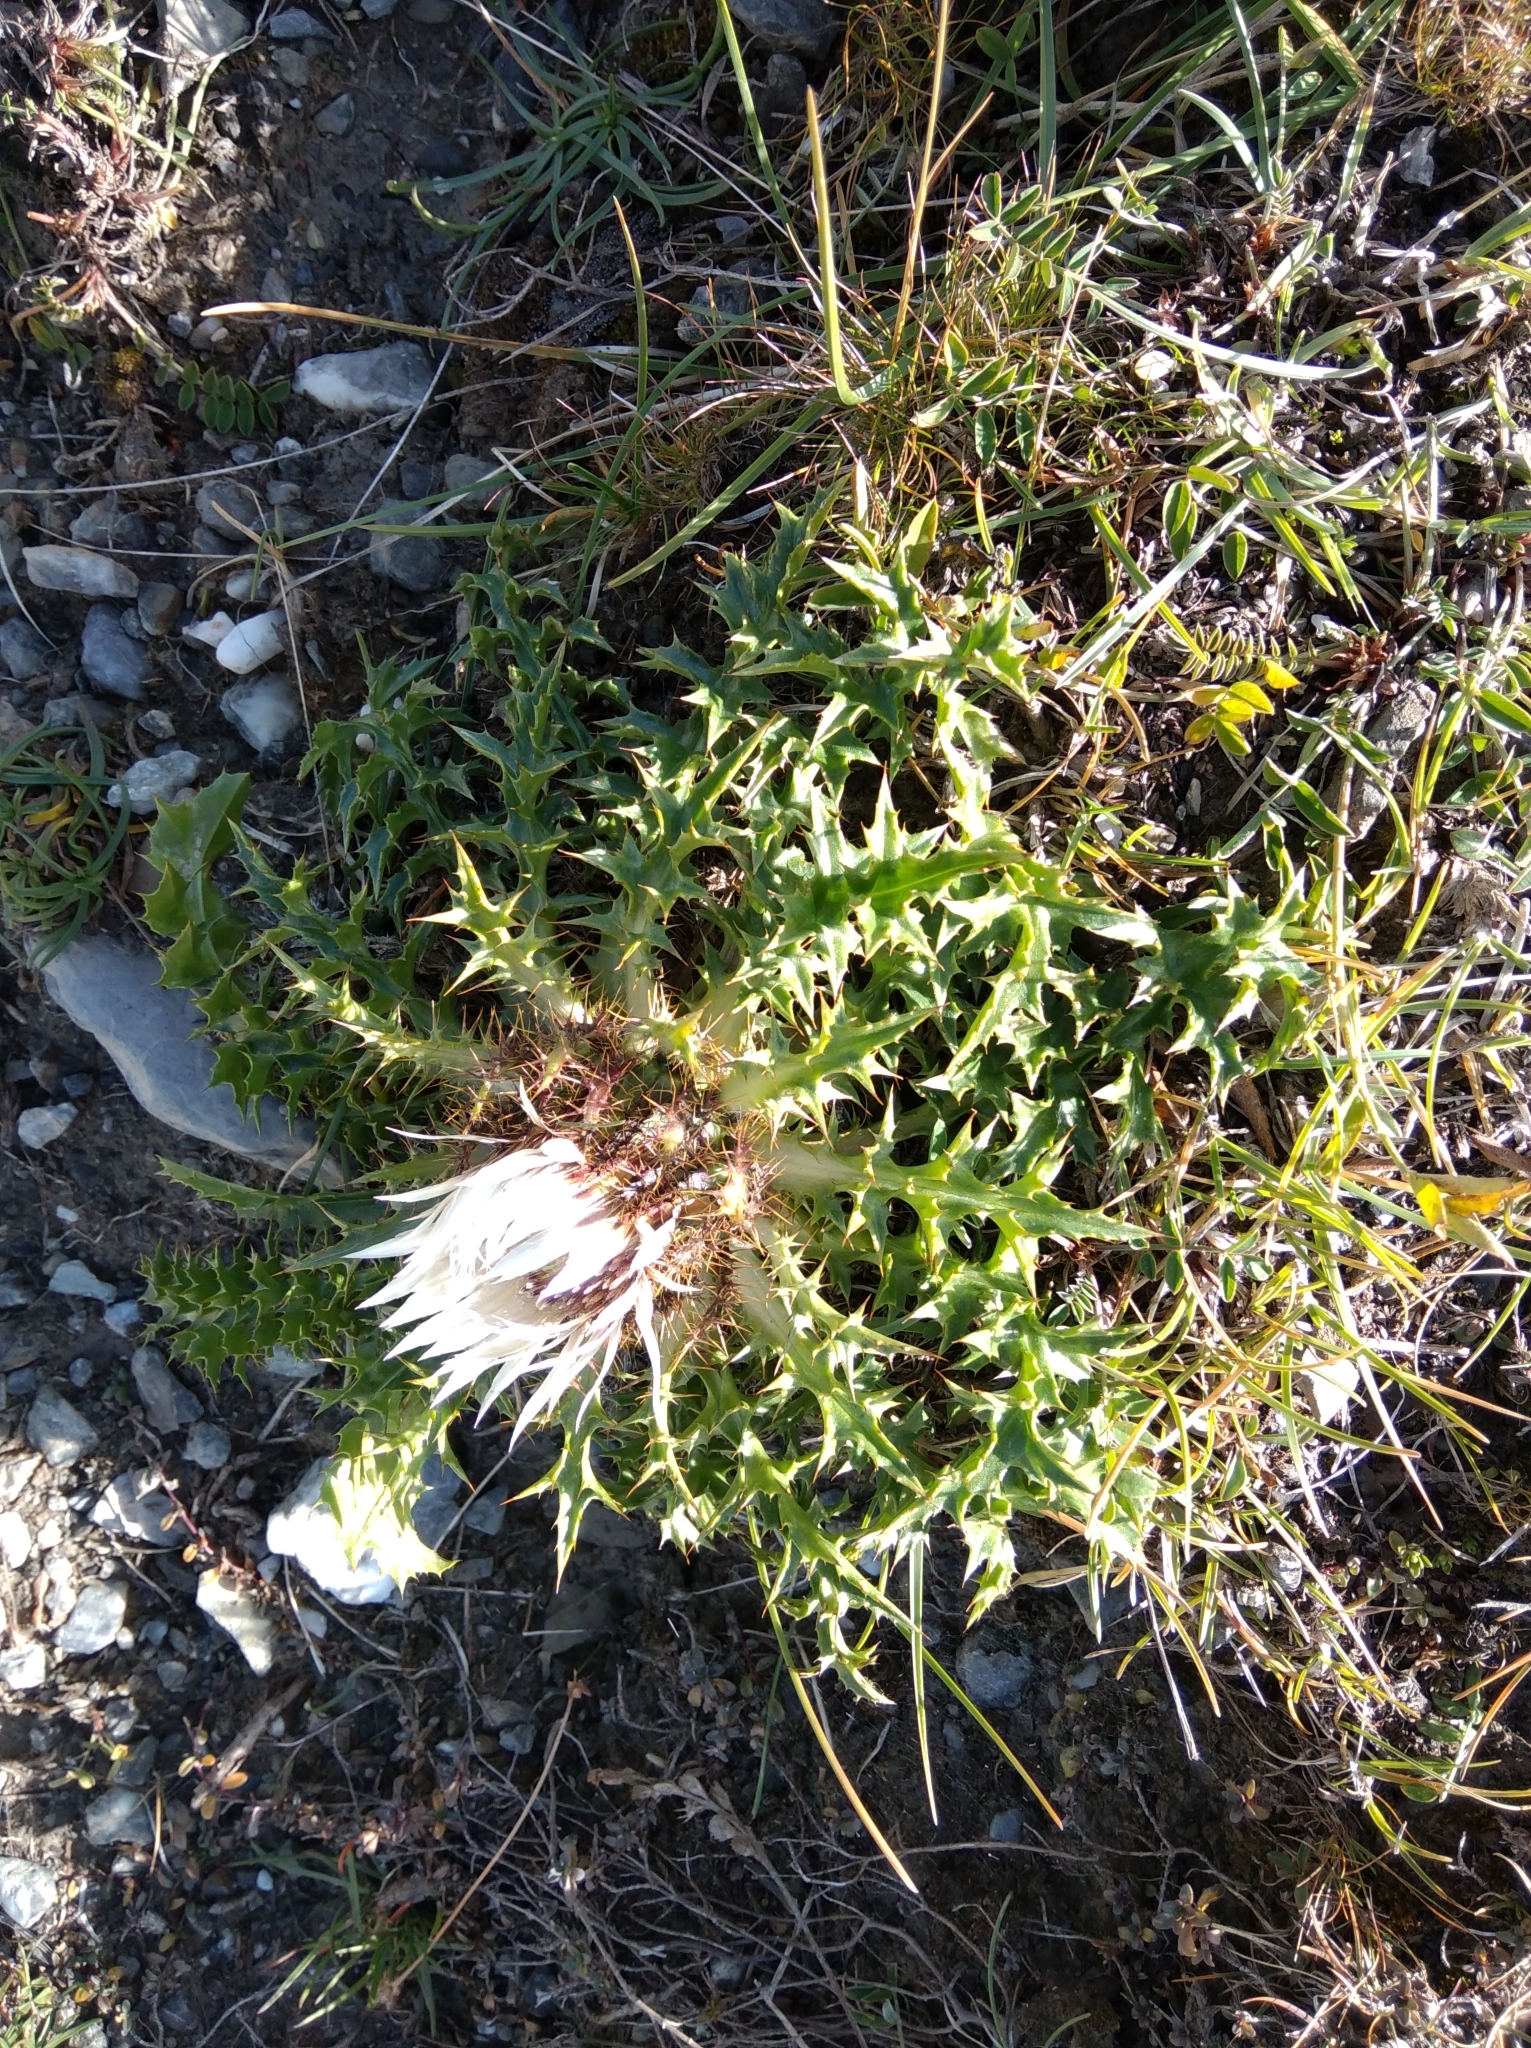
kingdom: Plantae
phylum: Tracheophyta
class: Magnoliopsida
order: Asterales
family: Asteraceae
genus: Carlina
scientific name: Carlina acaulis
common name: Stemless carline thistle
